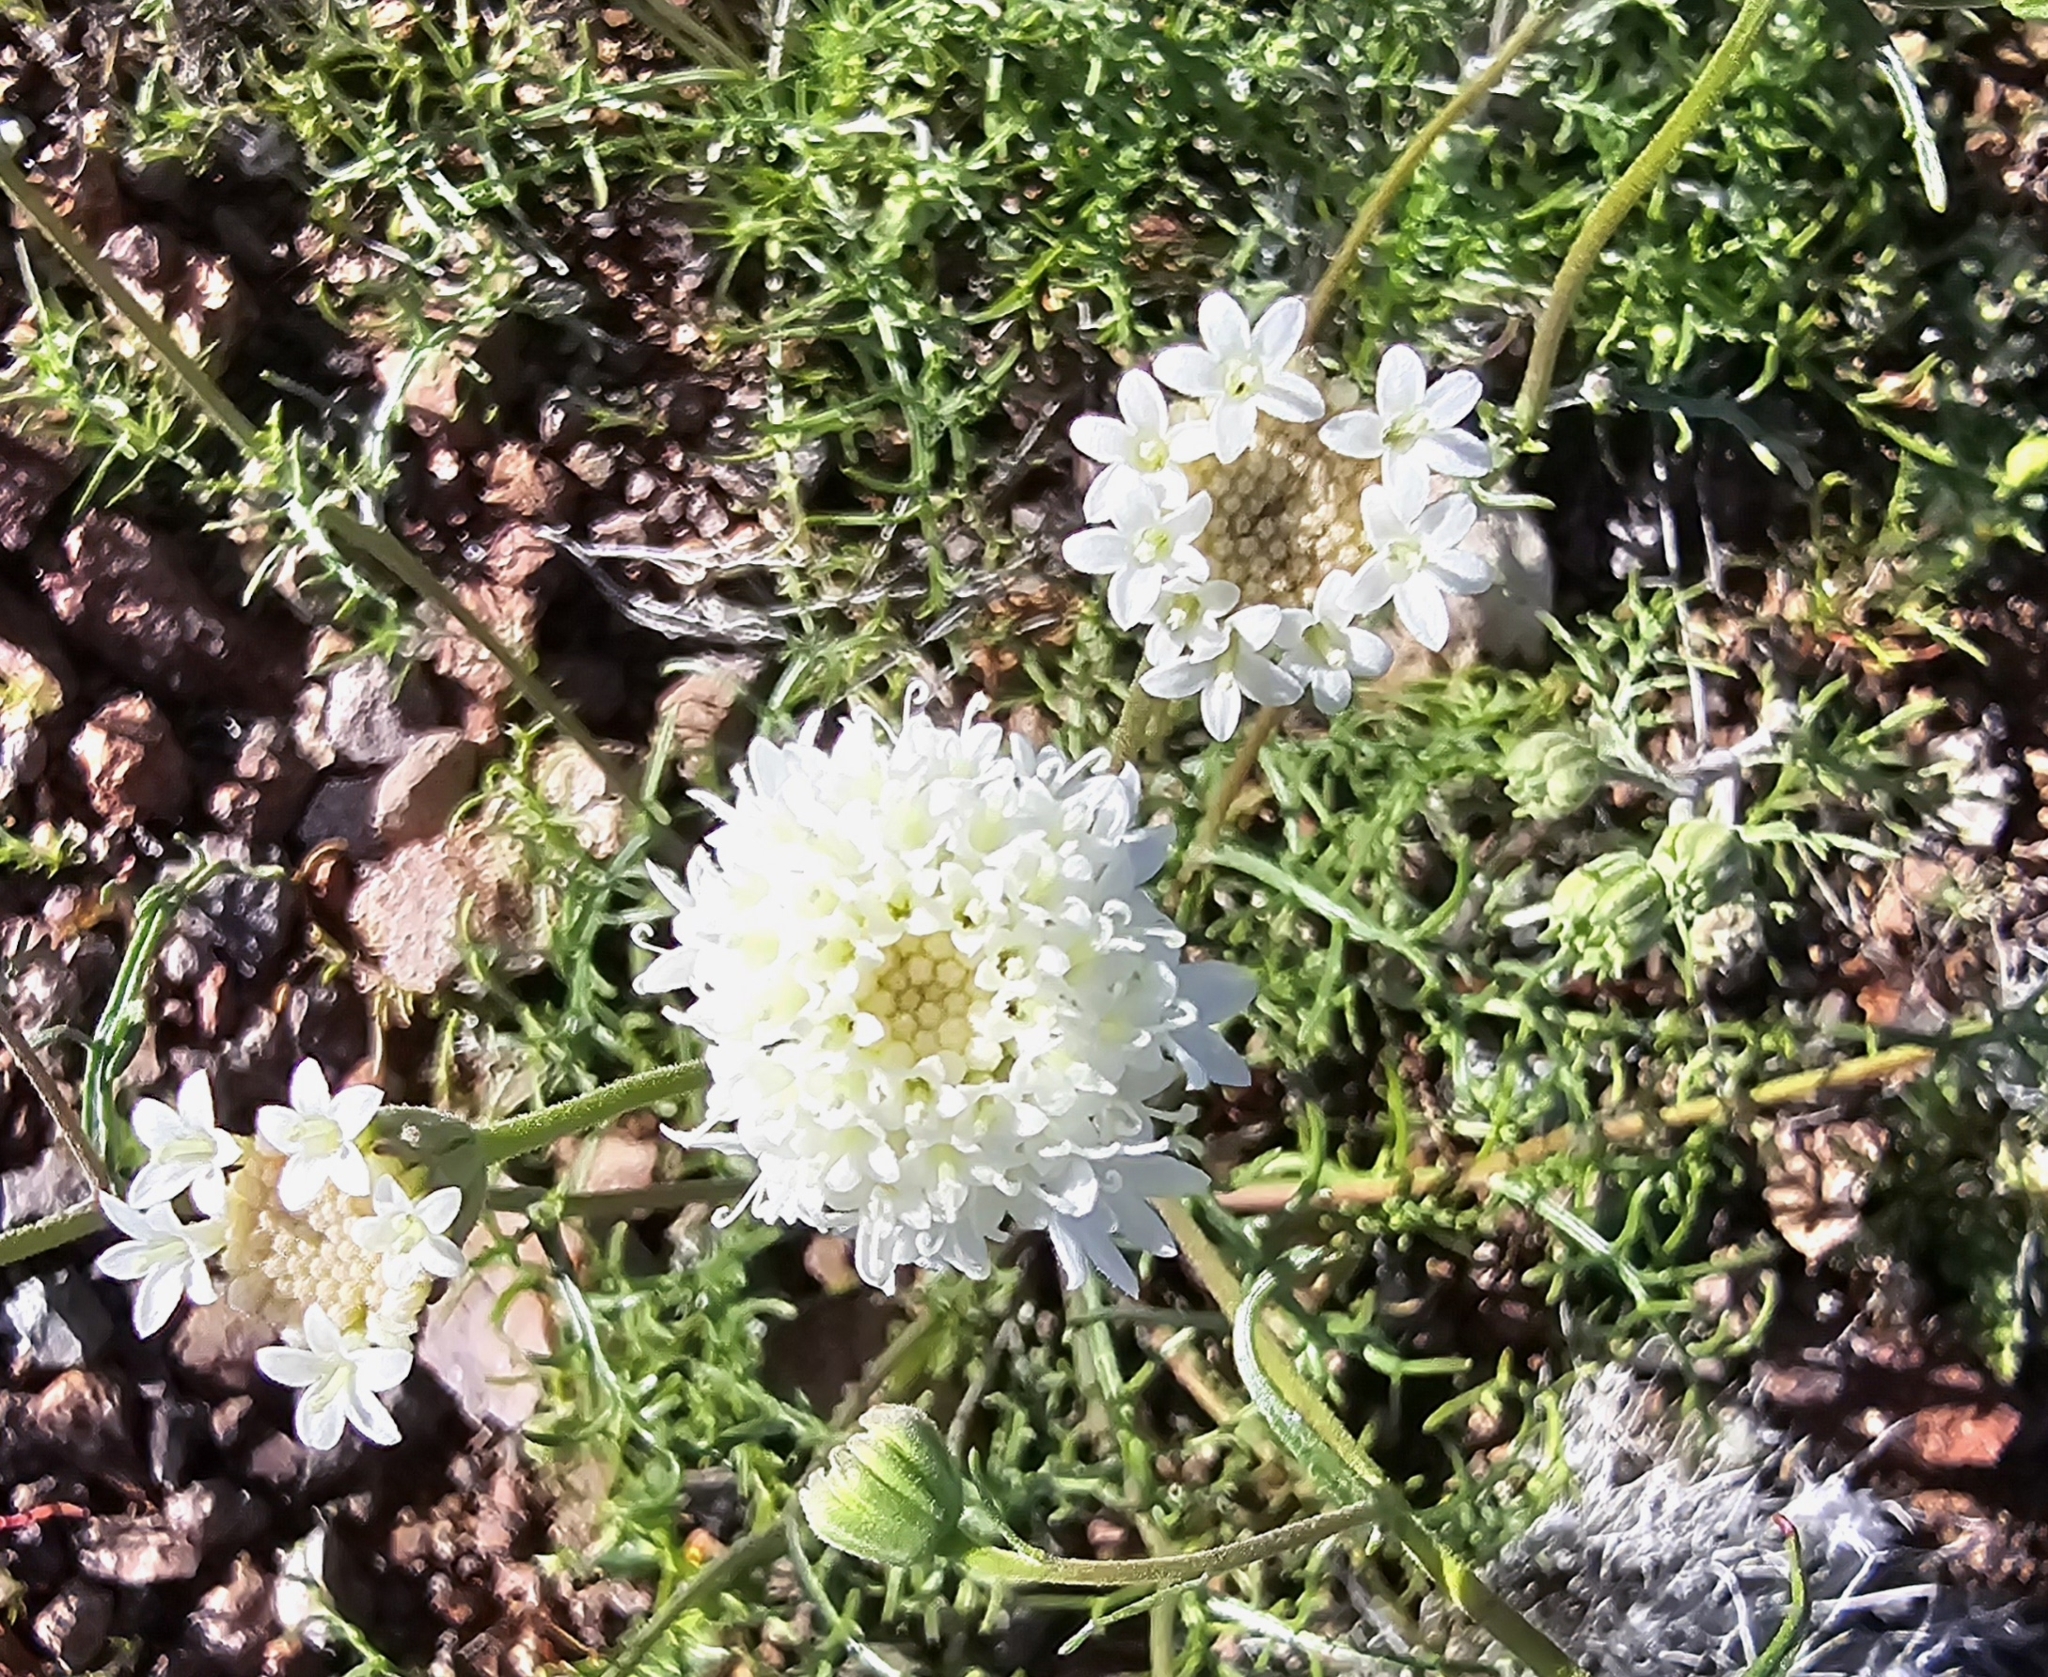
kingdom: Plantae
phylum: Tracheophyta
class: Magnoliopsida
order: Asterales
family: Asteraceae
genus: Chaenactis
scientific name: Chaenactis stevioides
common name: Desert pincushion
